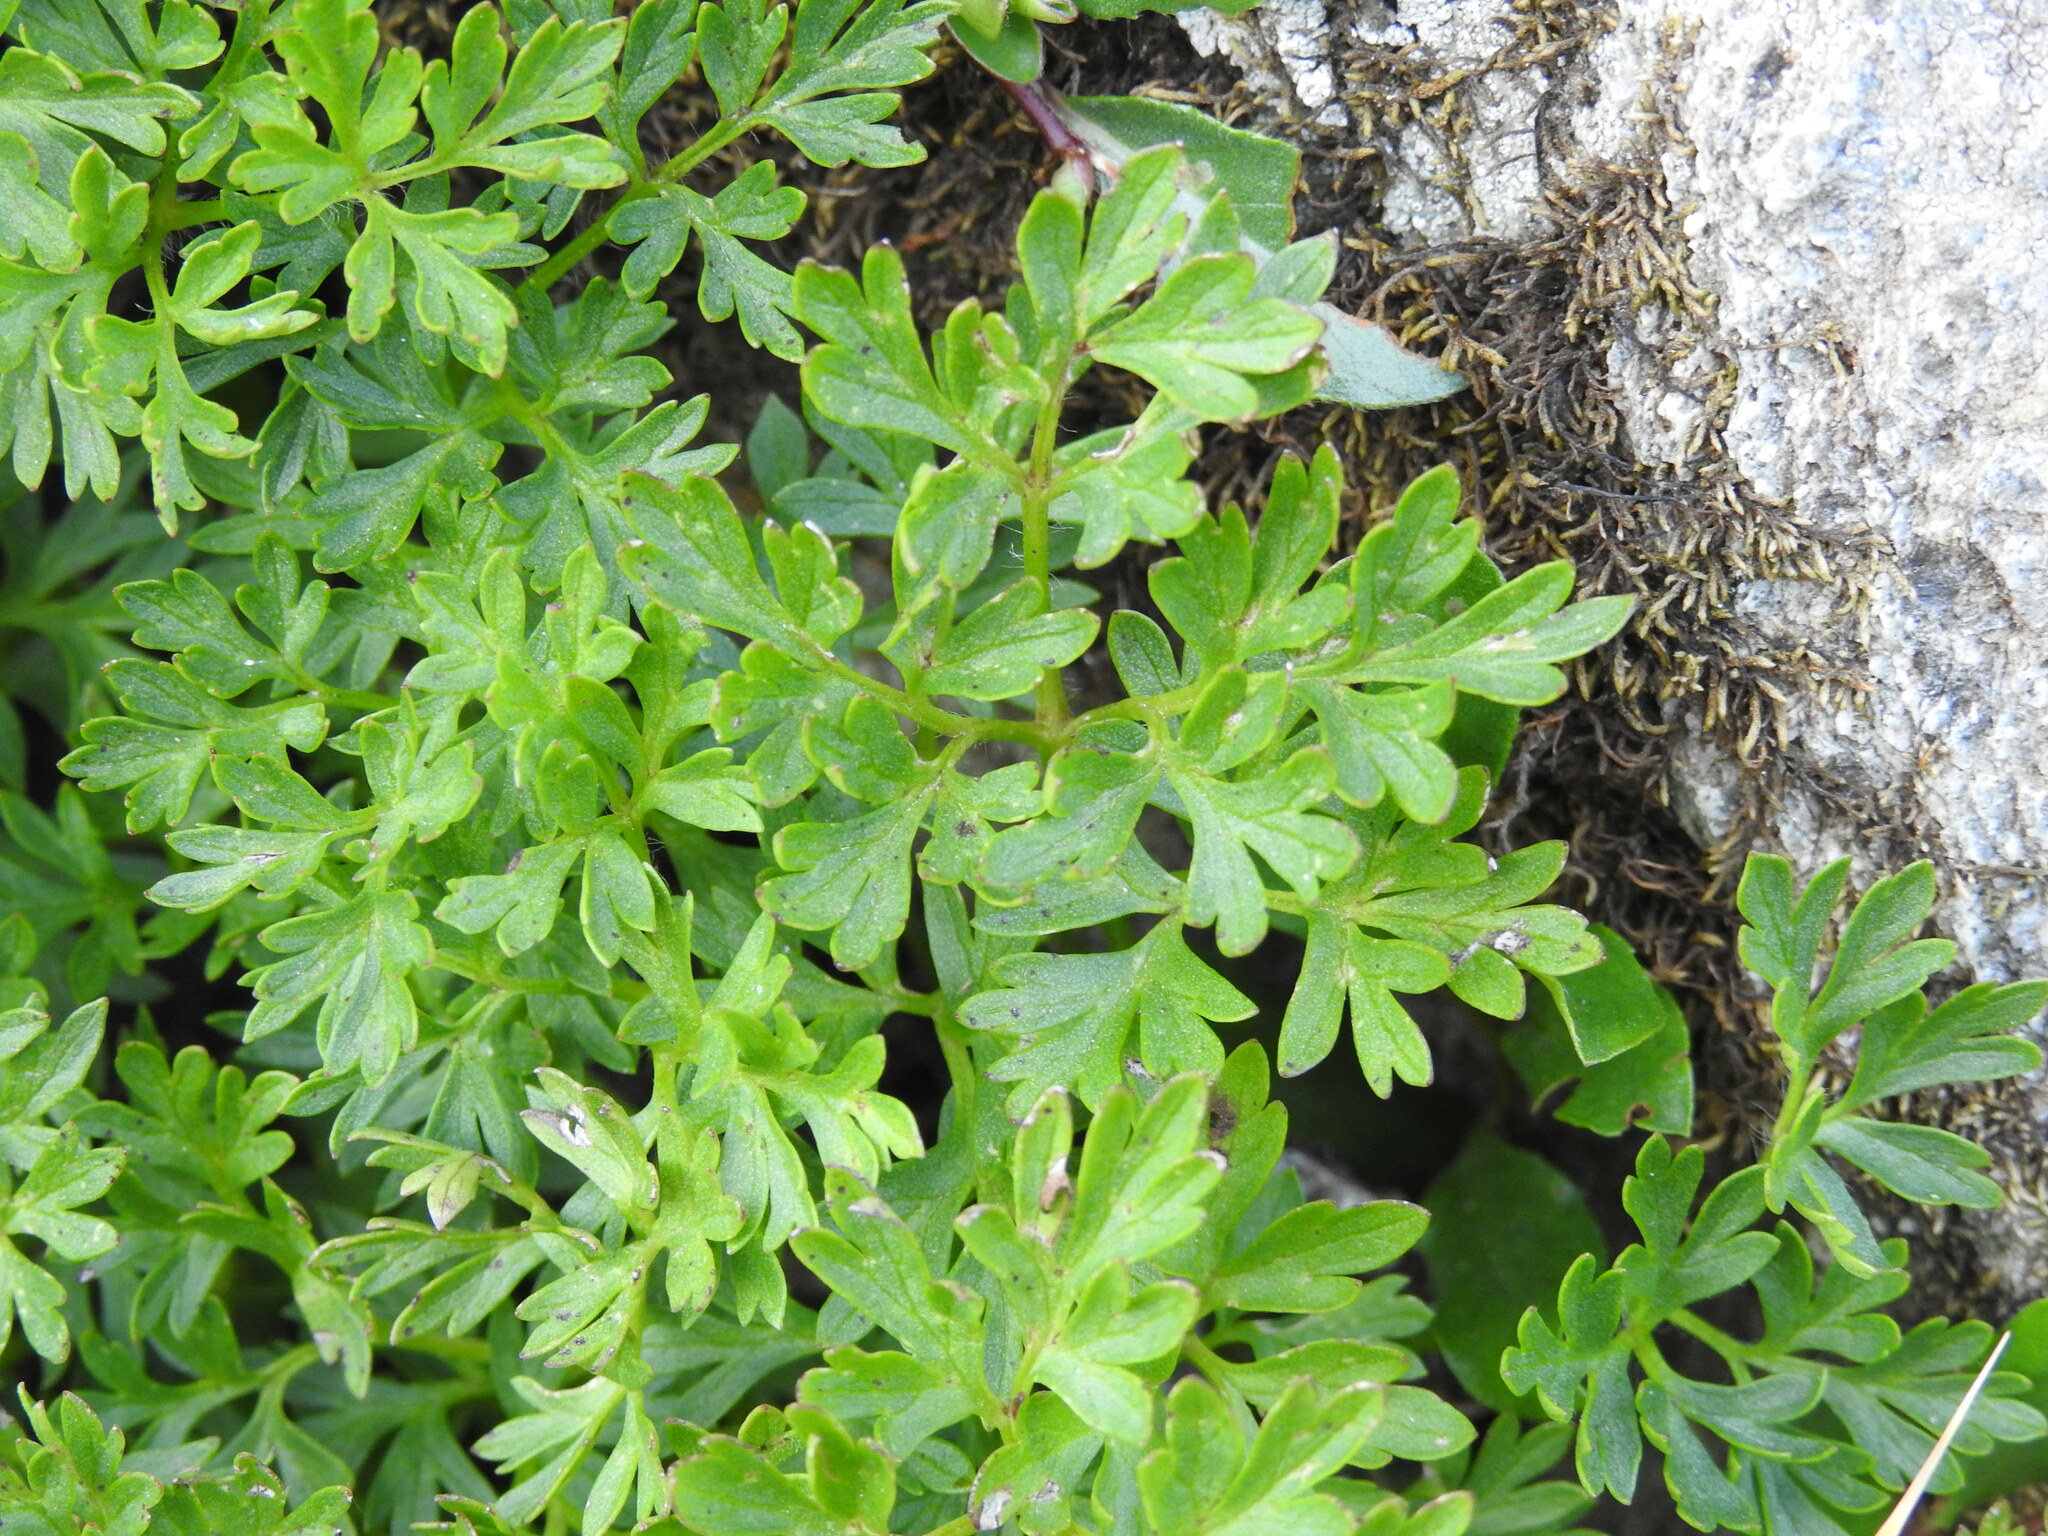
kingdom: Plantae
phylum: Tracheophyta
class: Magnoliopsida
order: Ranunculales
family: Ranunculaceae
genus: Anemone
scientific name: Anemone baldensis
